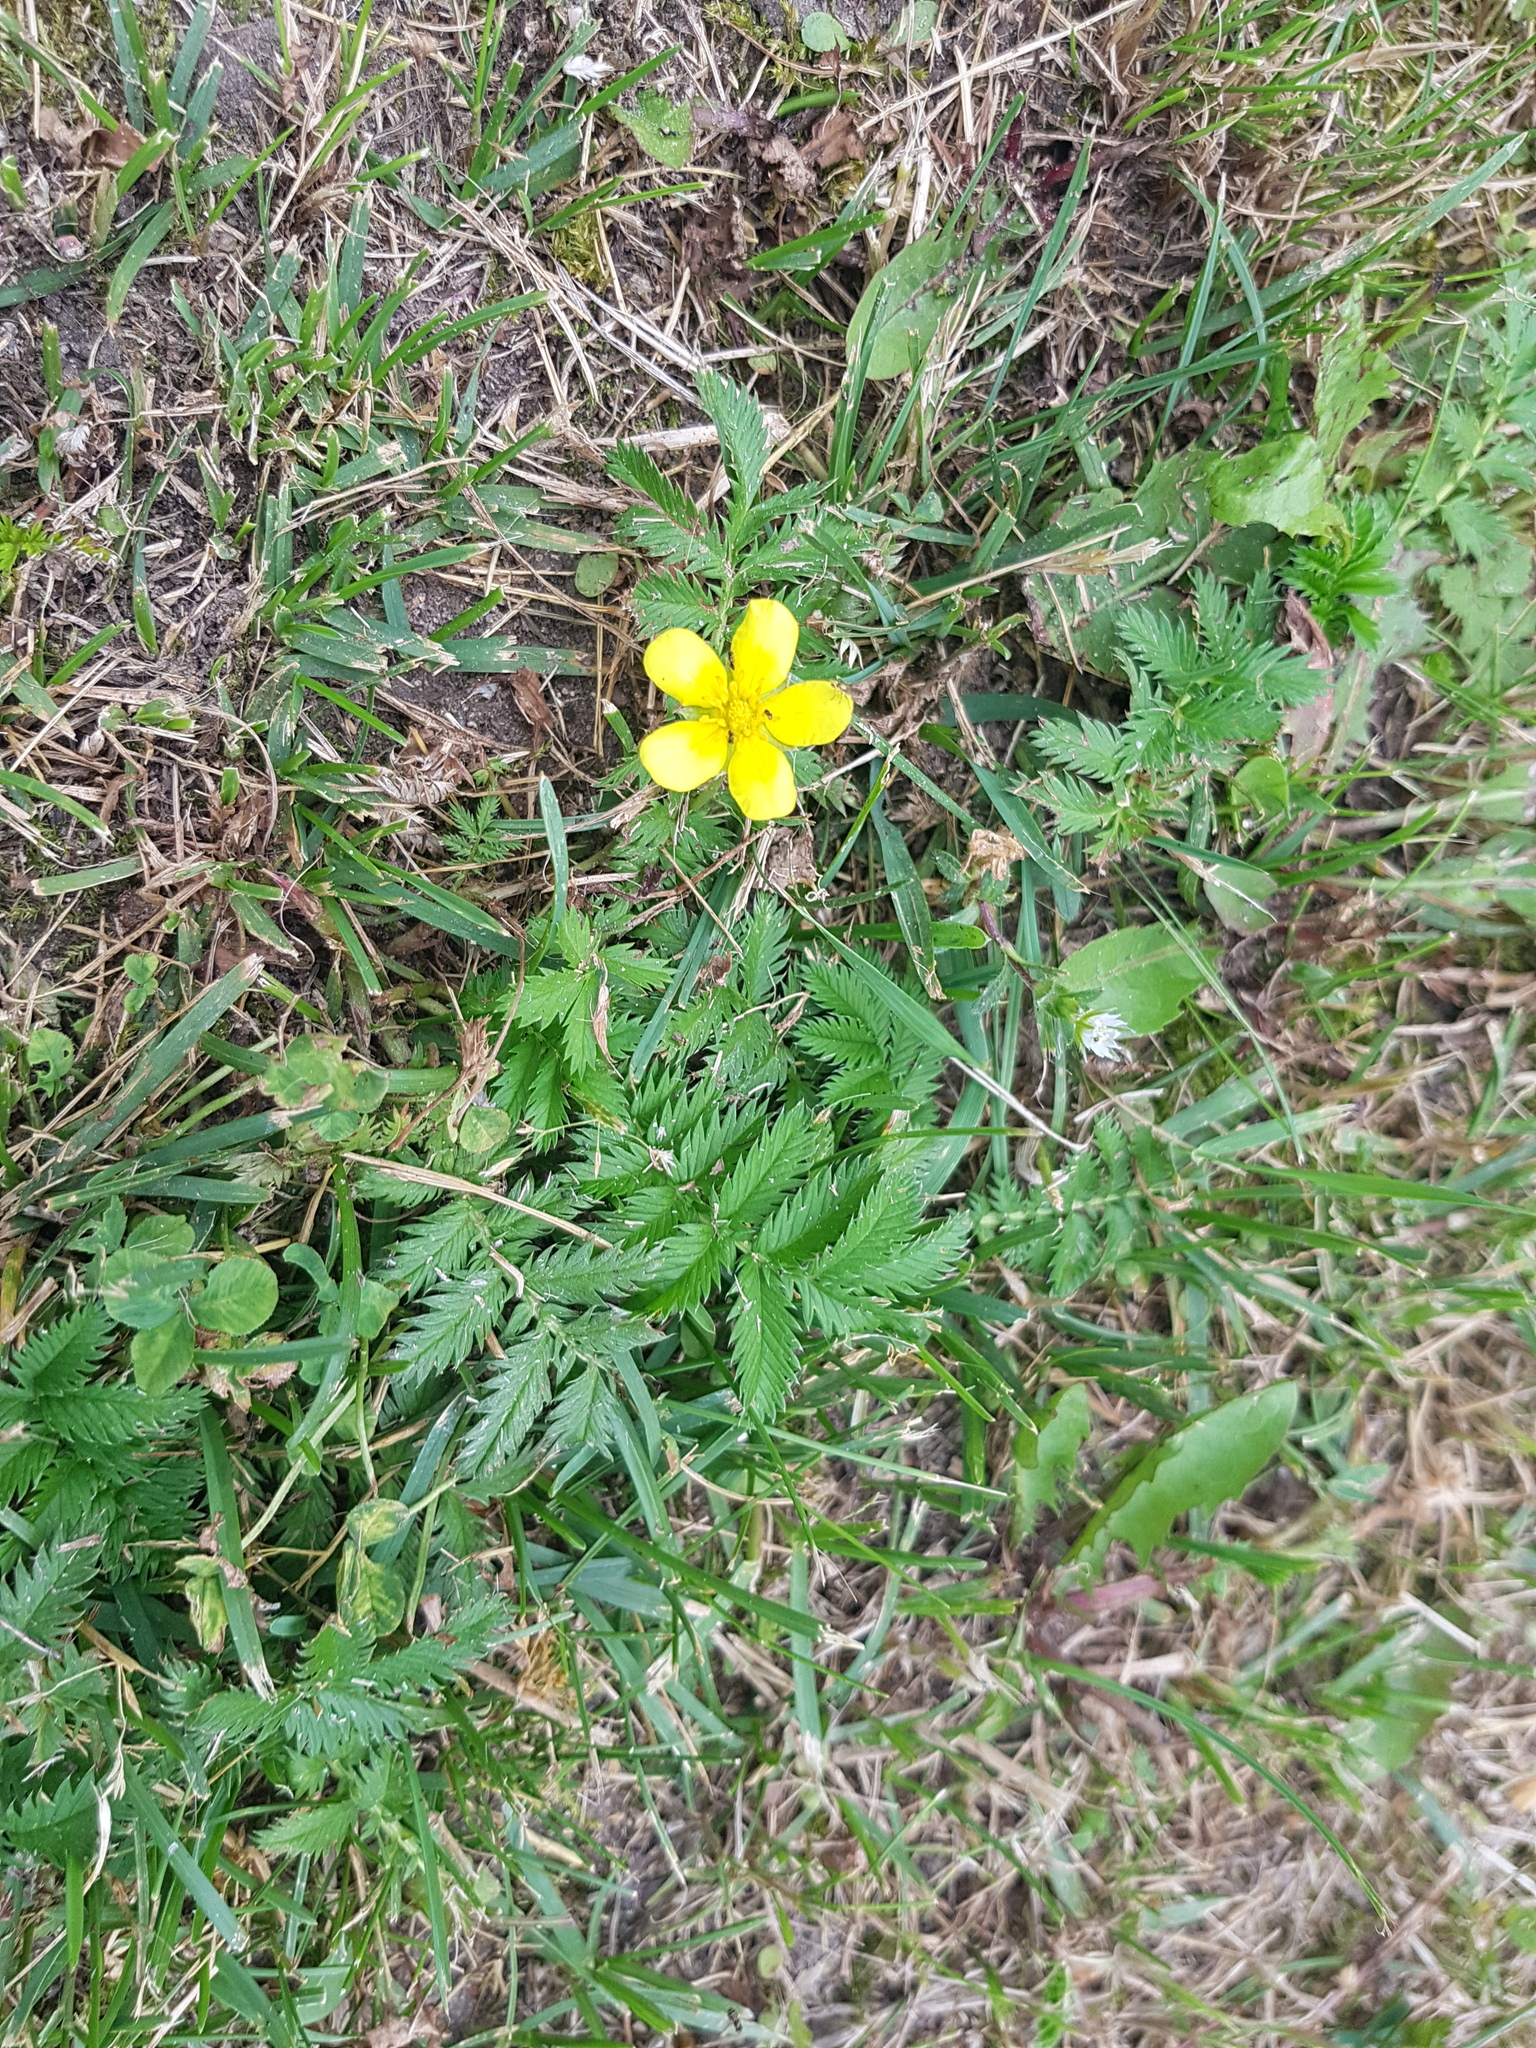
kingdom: Plantae
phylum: Tracheophyta
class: Magnoliopsida
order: Rosales
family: Rosaceae
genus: Argentina
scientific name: Argentina anserina
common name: Common silverweed
